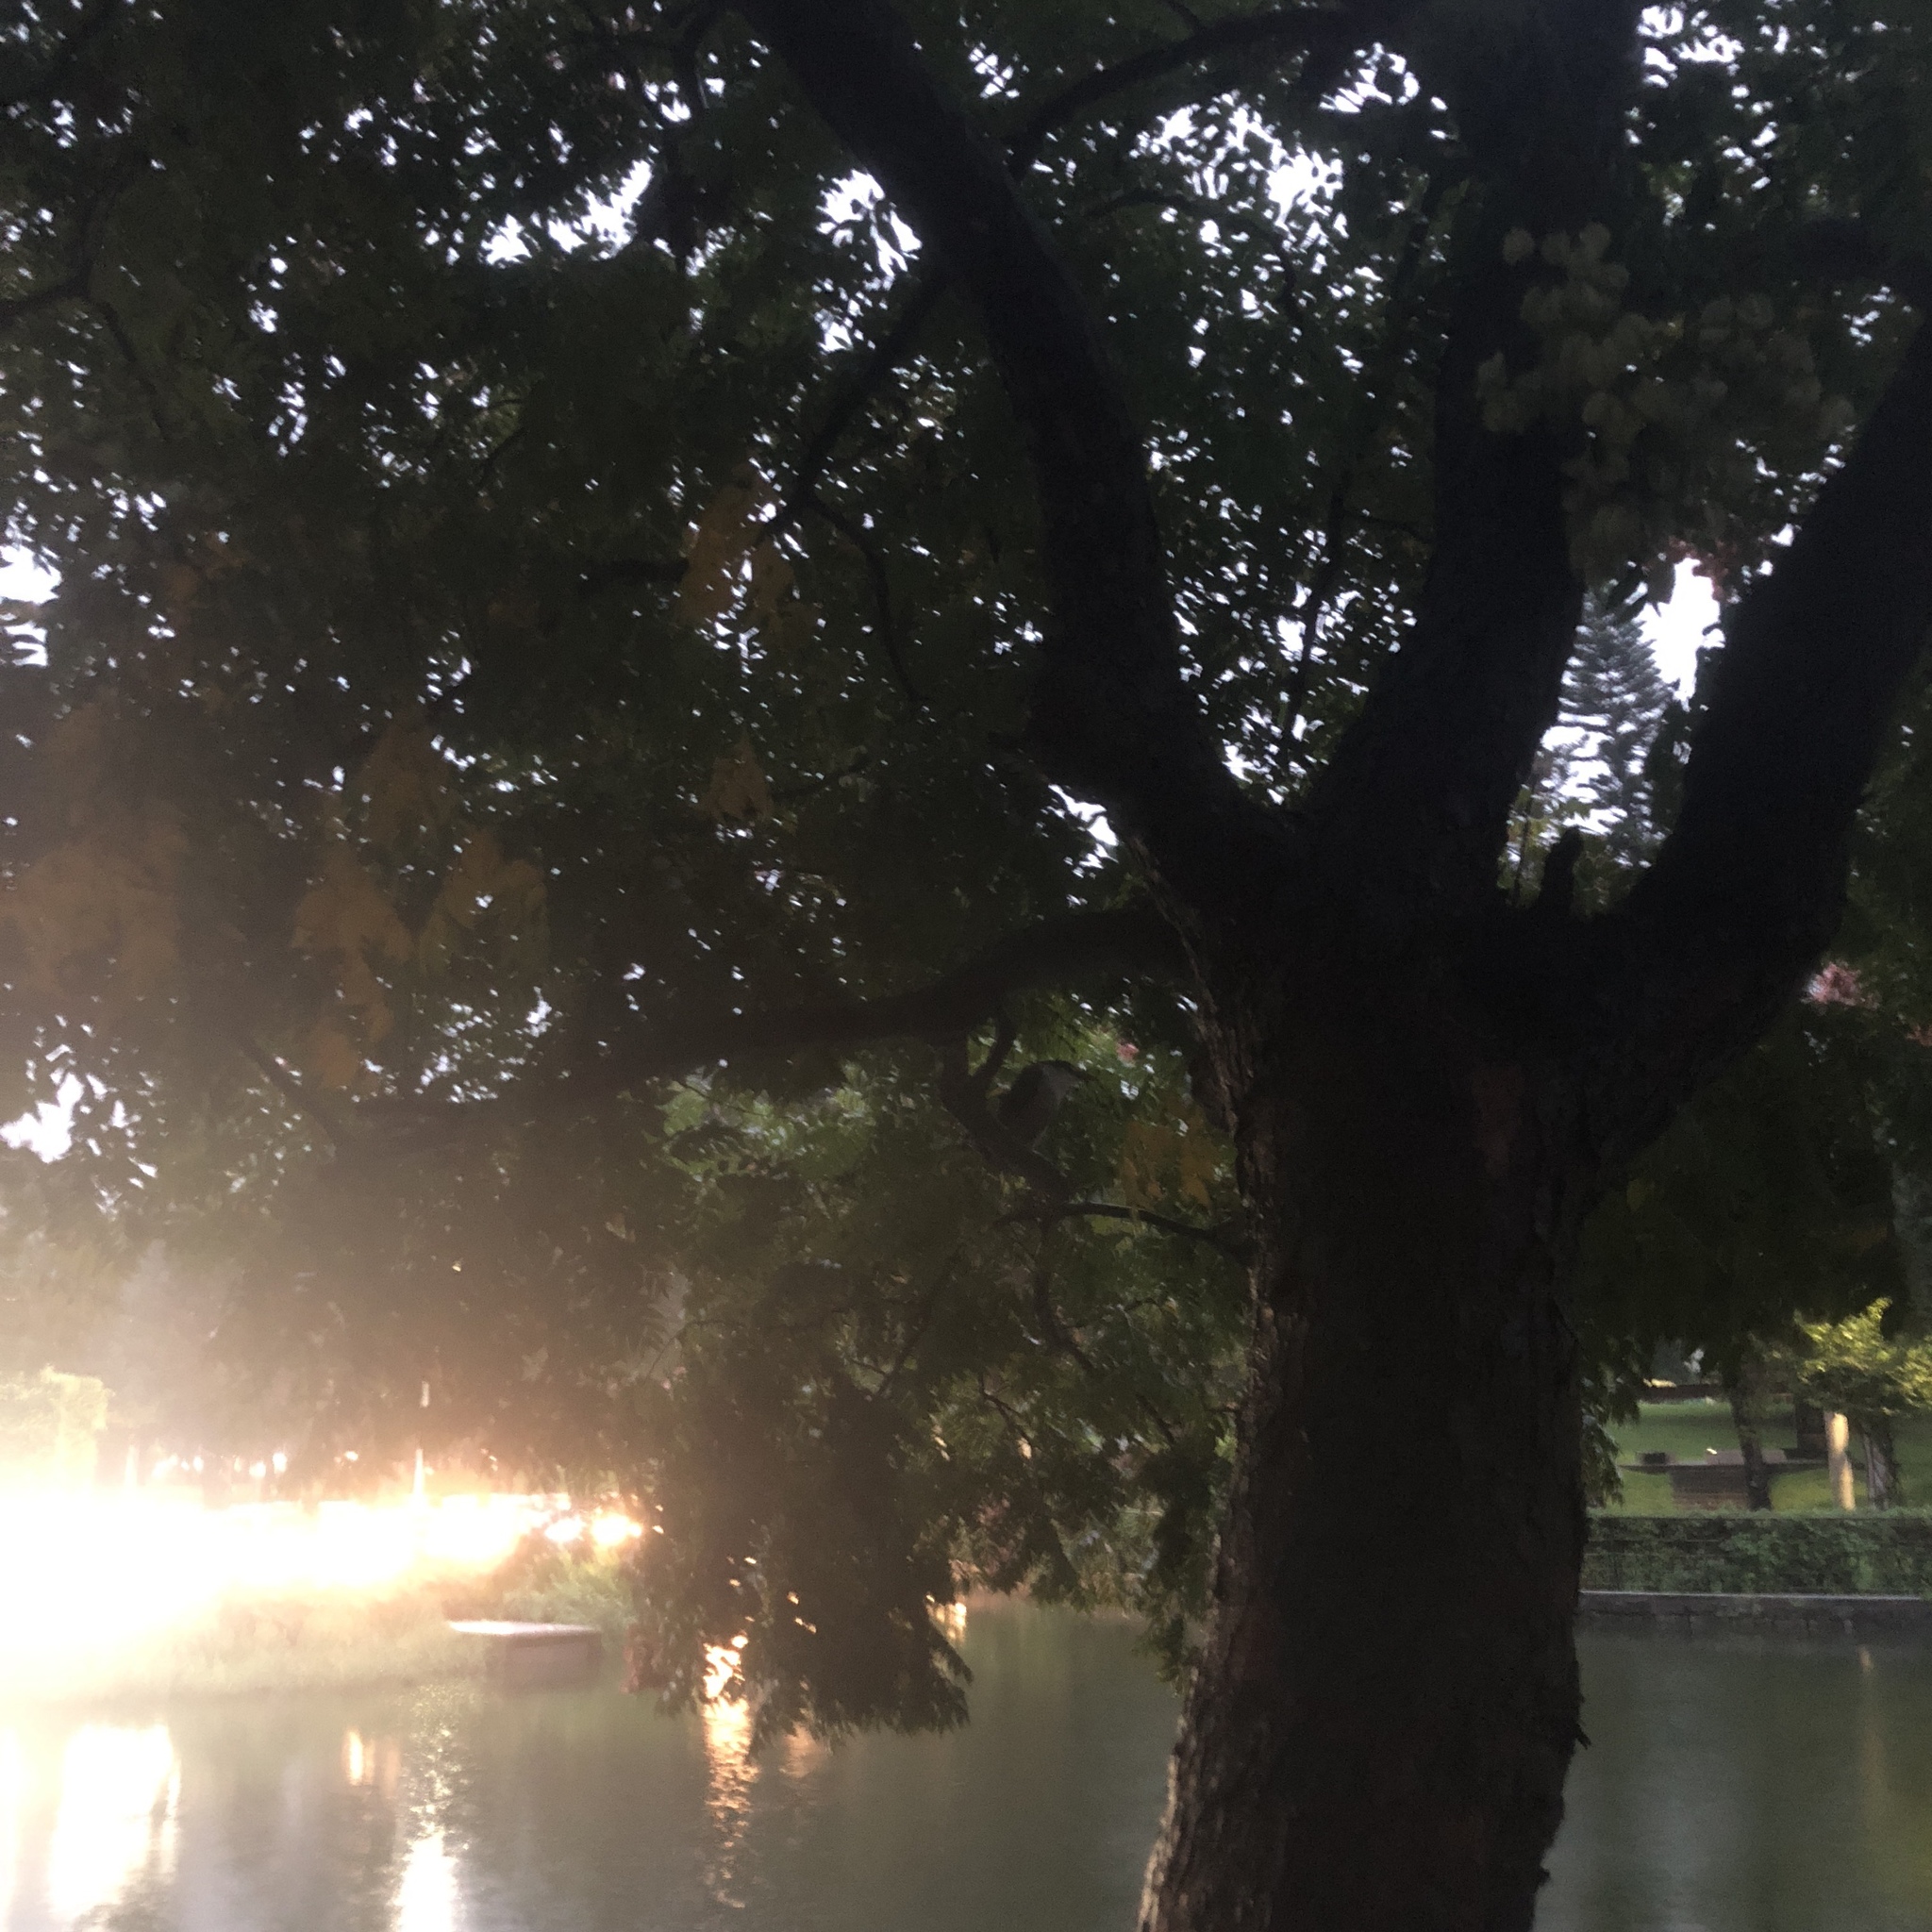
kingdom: Animalia
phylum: Chordata
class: Aves
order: Pelecaniformes
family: Ardeidae
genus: Nycticorax
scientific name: Nycticorax nycticorax
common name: Black-crowned night heron
